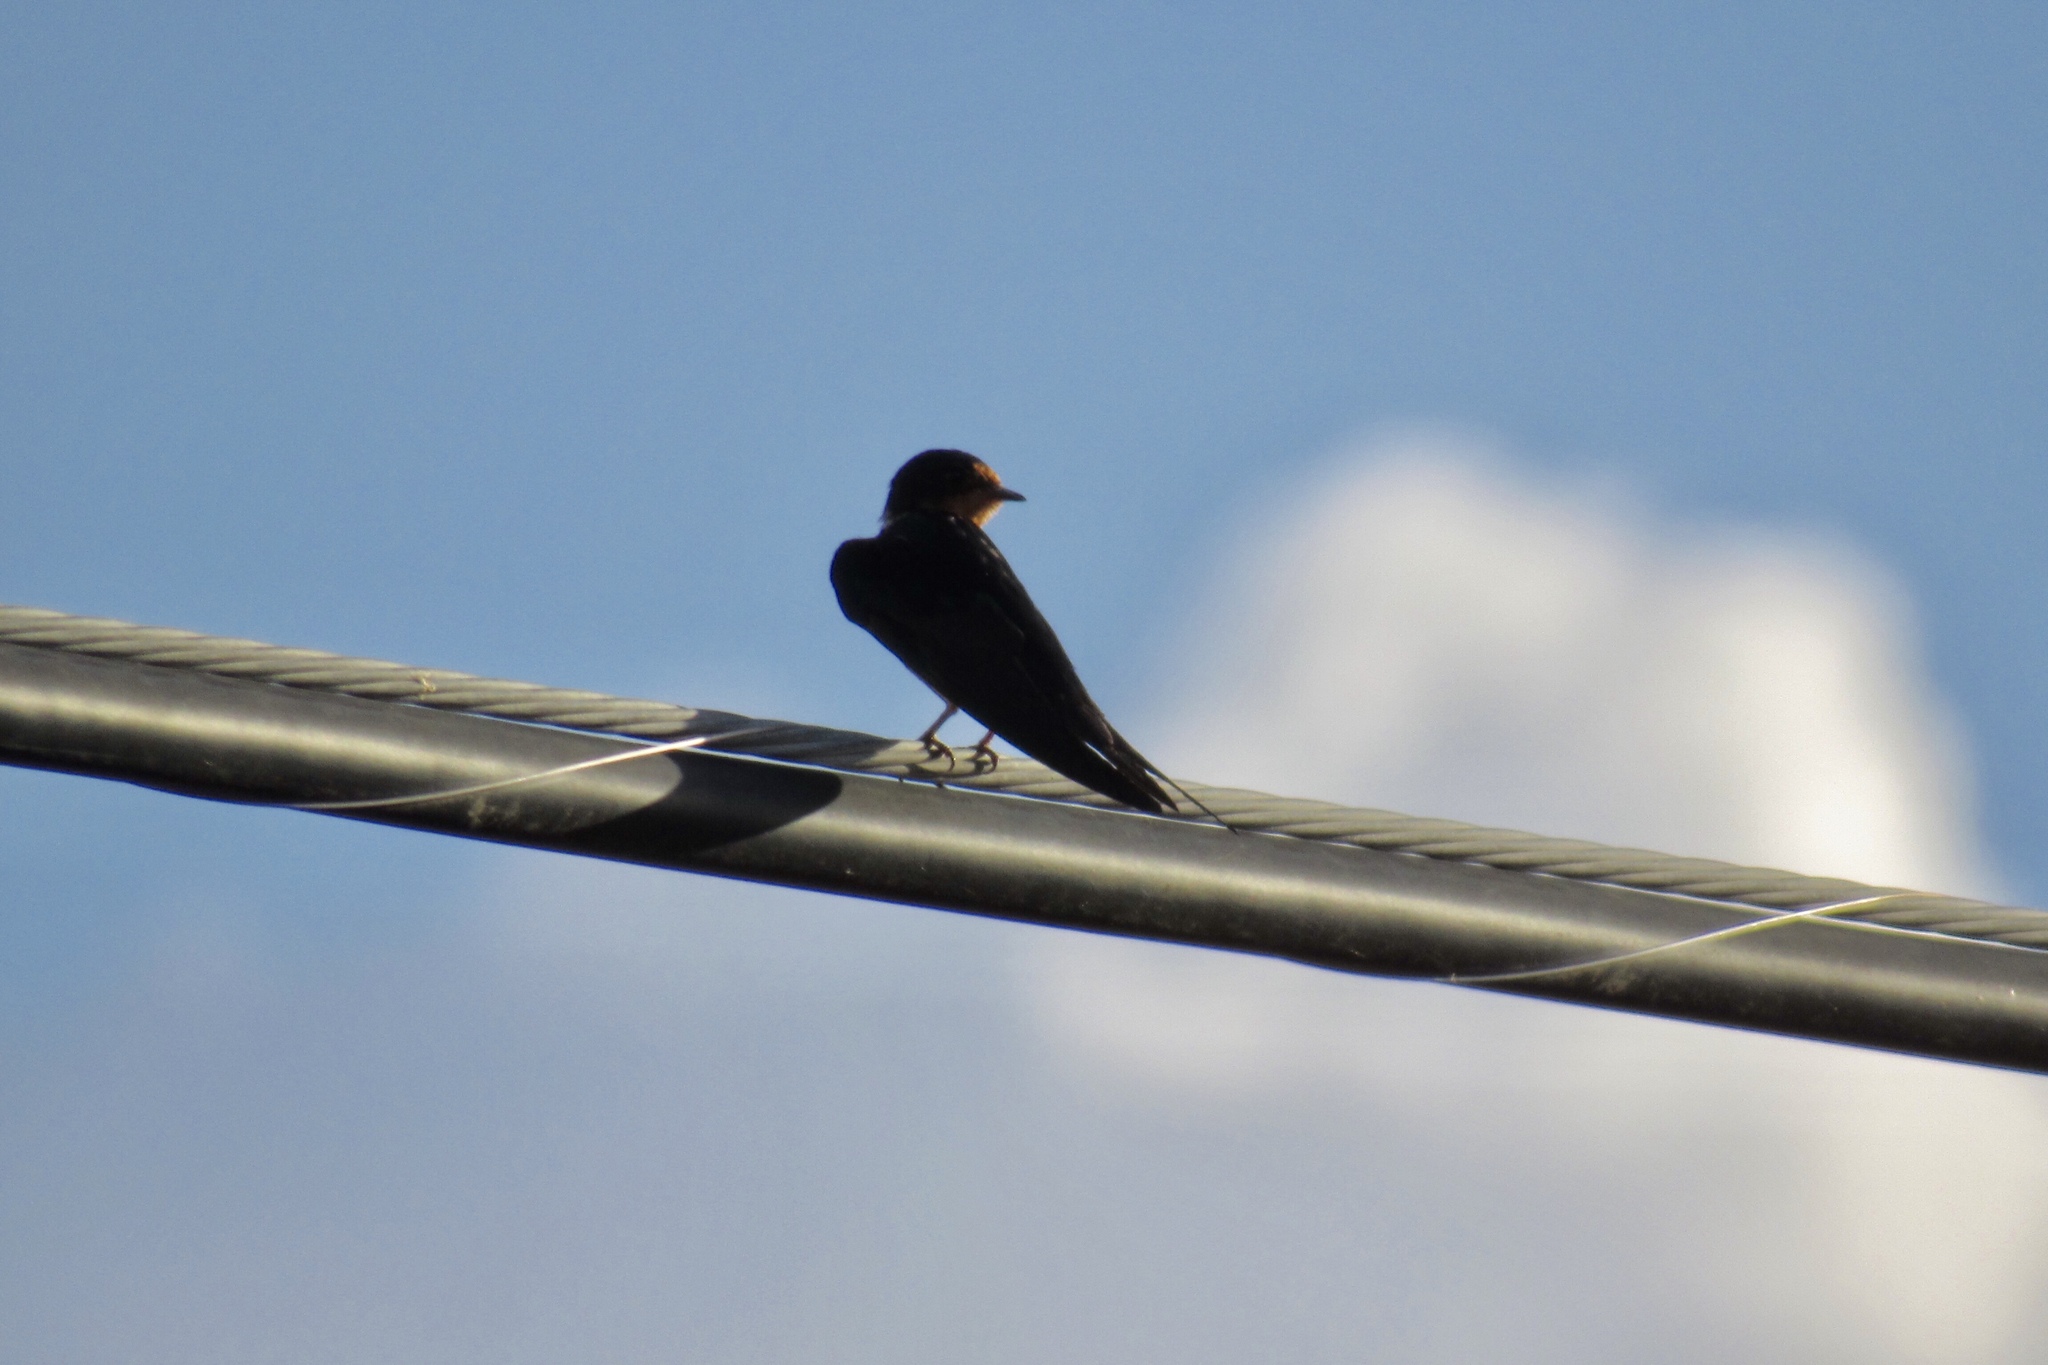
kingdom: Animalia
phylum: Chordata
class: Aves
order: Passeriformes
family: Hirundinidae
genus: Hirundo
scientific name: Hirundo rustica
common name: Barn swallow
